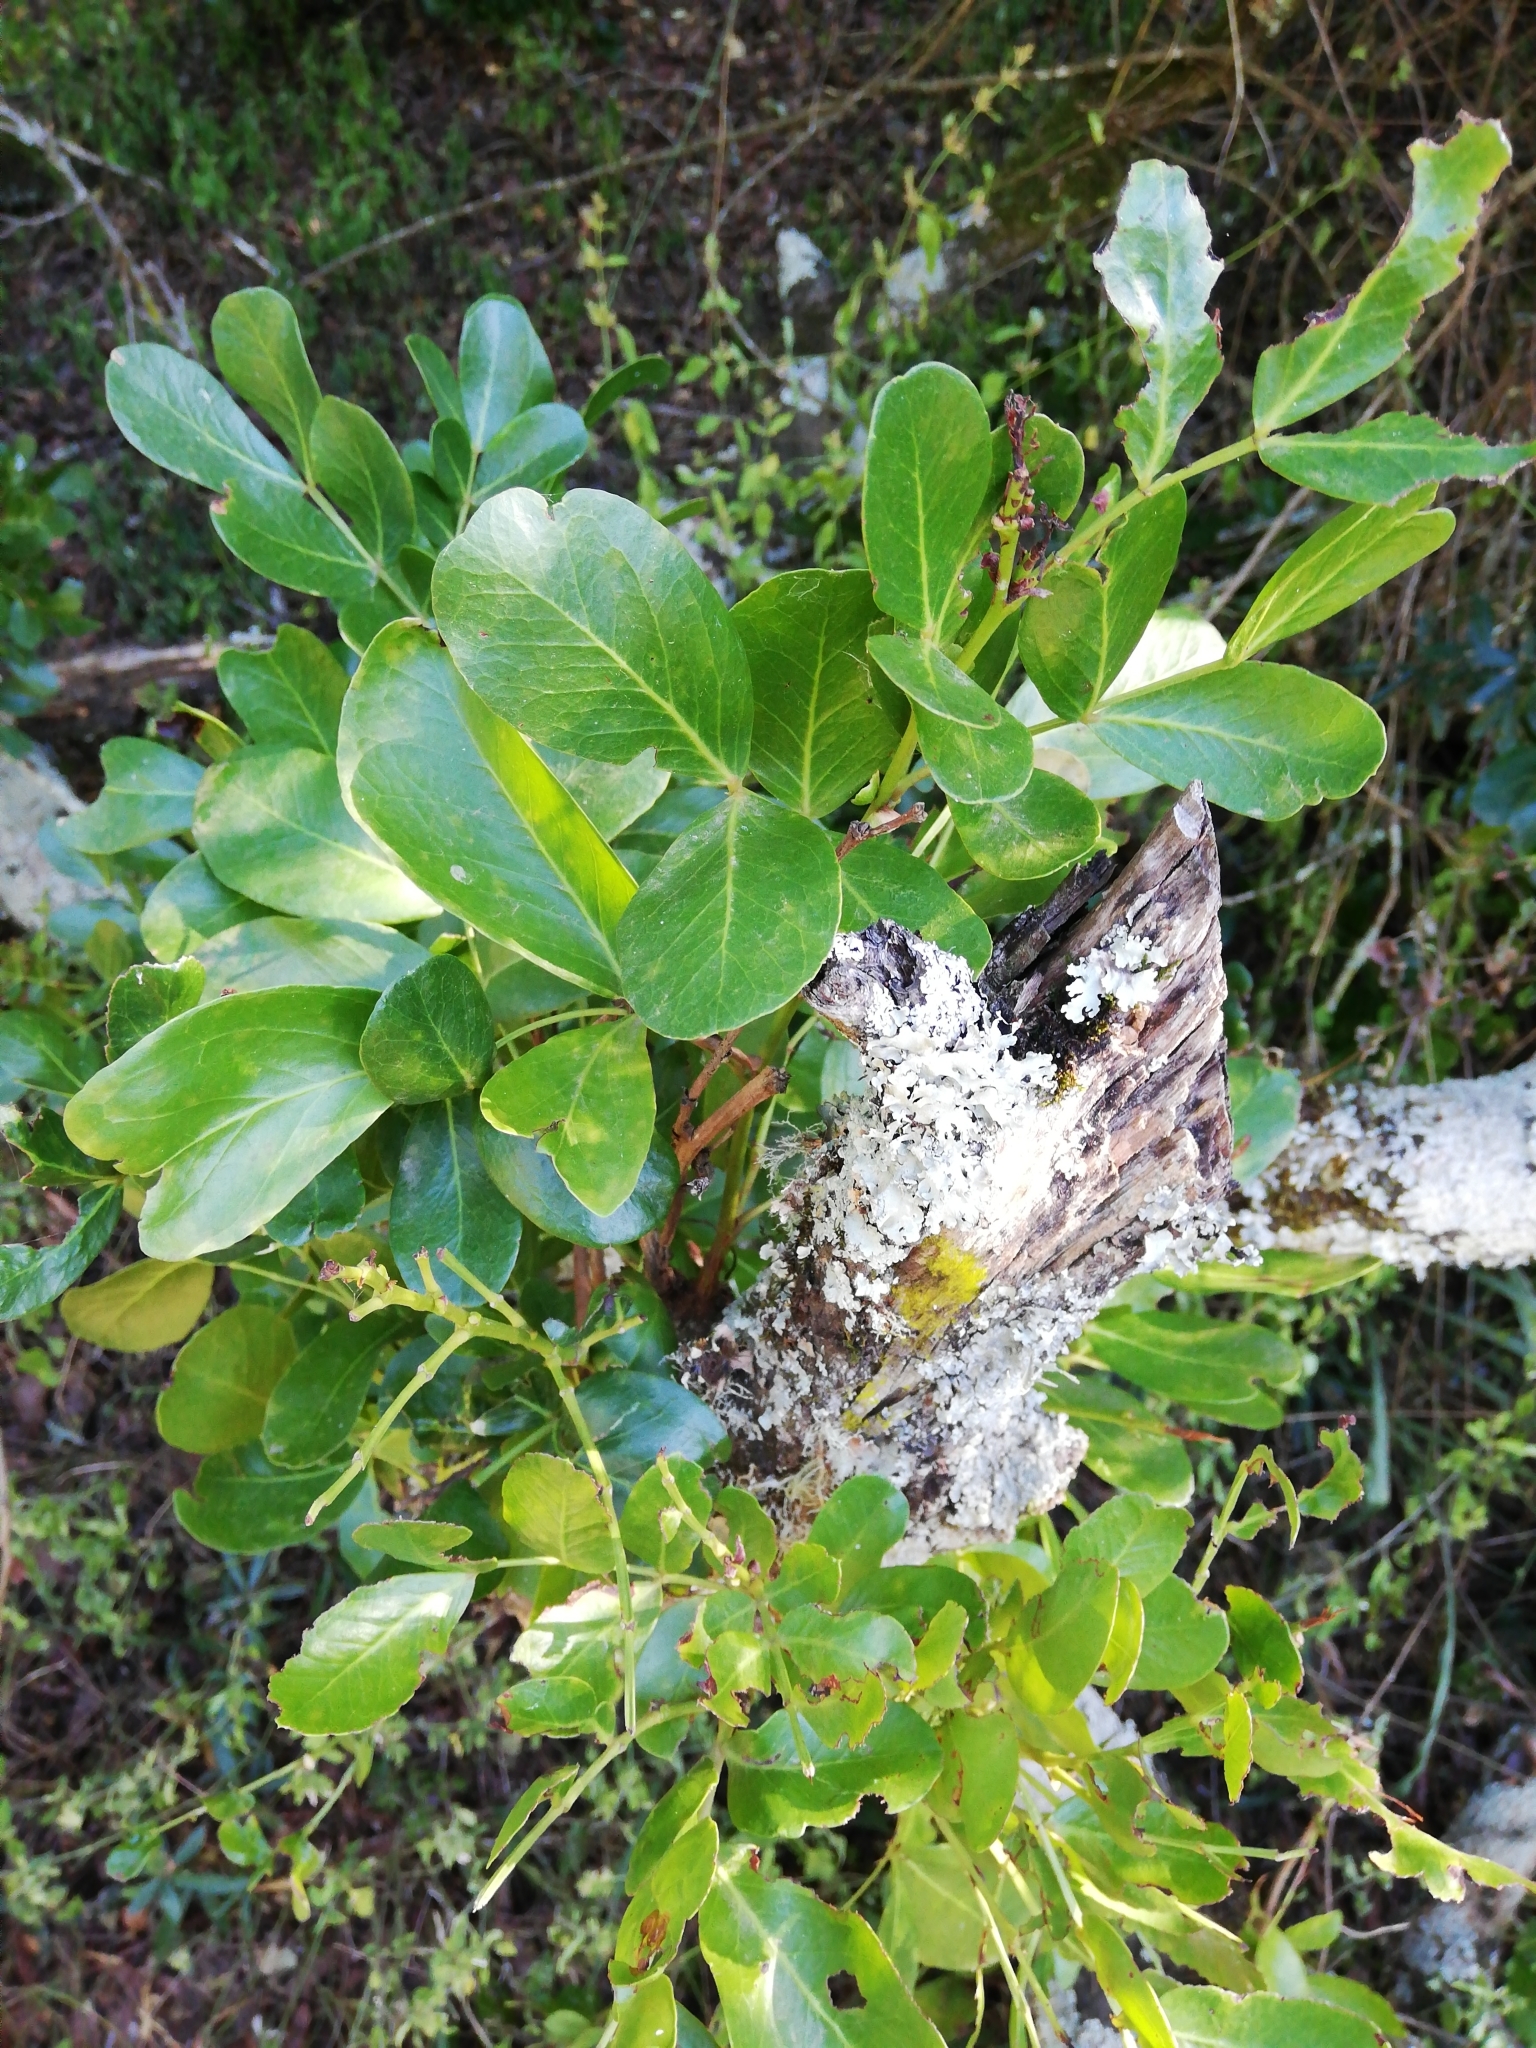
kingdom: Plantae
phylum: Tracheophyta
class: Magnoliopsida
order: Fabales
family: Fabaceae
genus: Schotia
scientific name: Schotia latifolia
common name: Bush boer-bean
